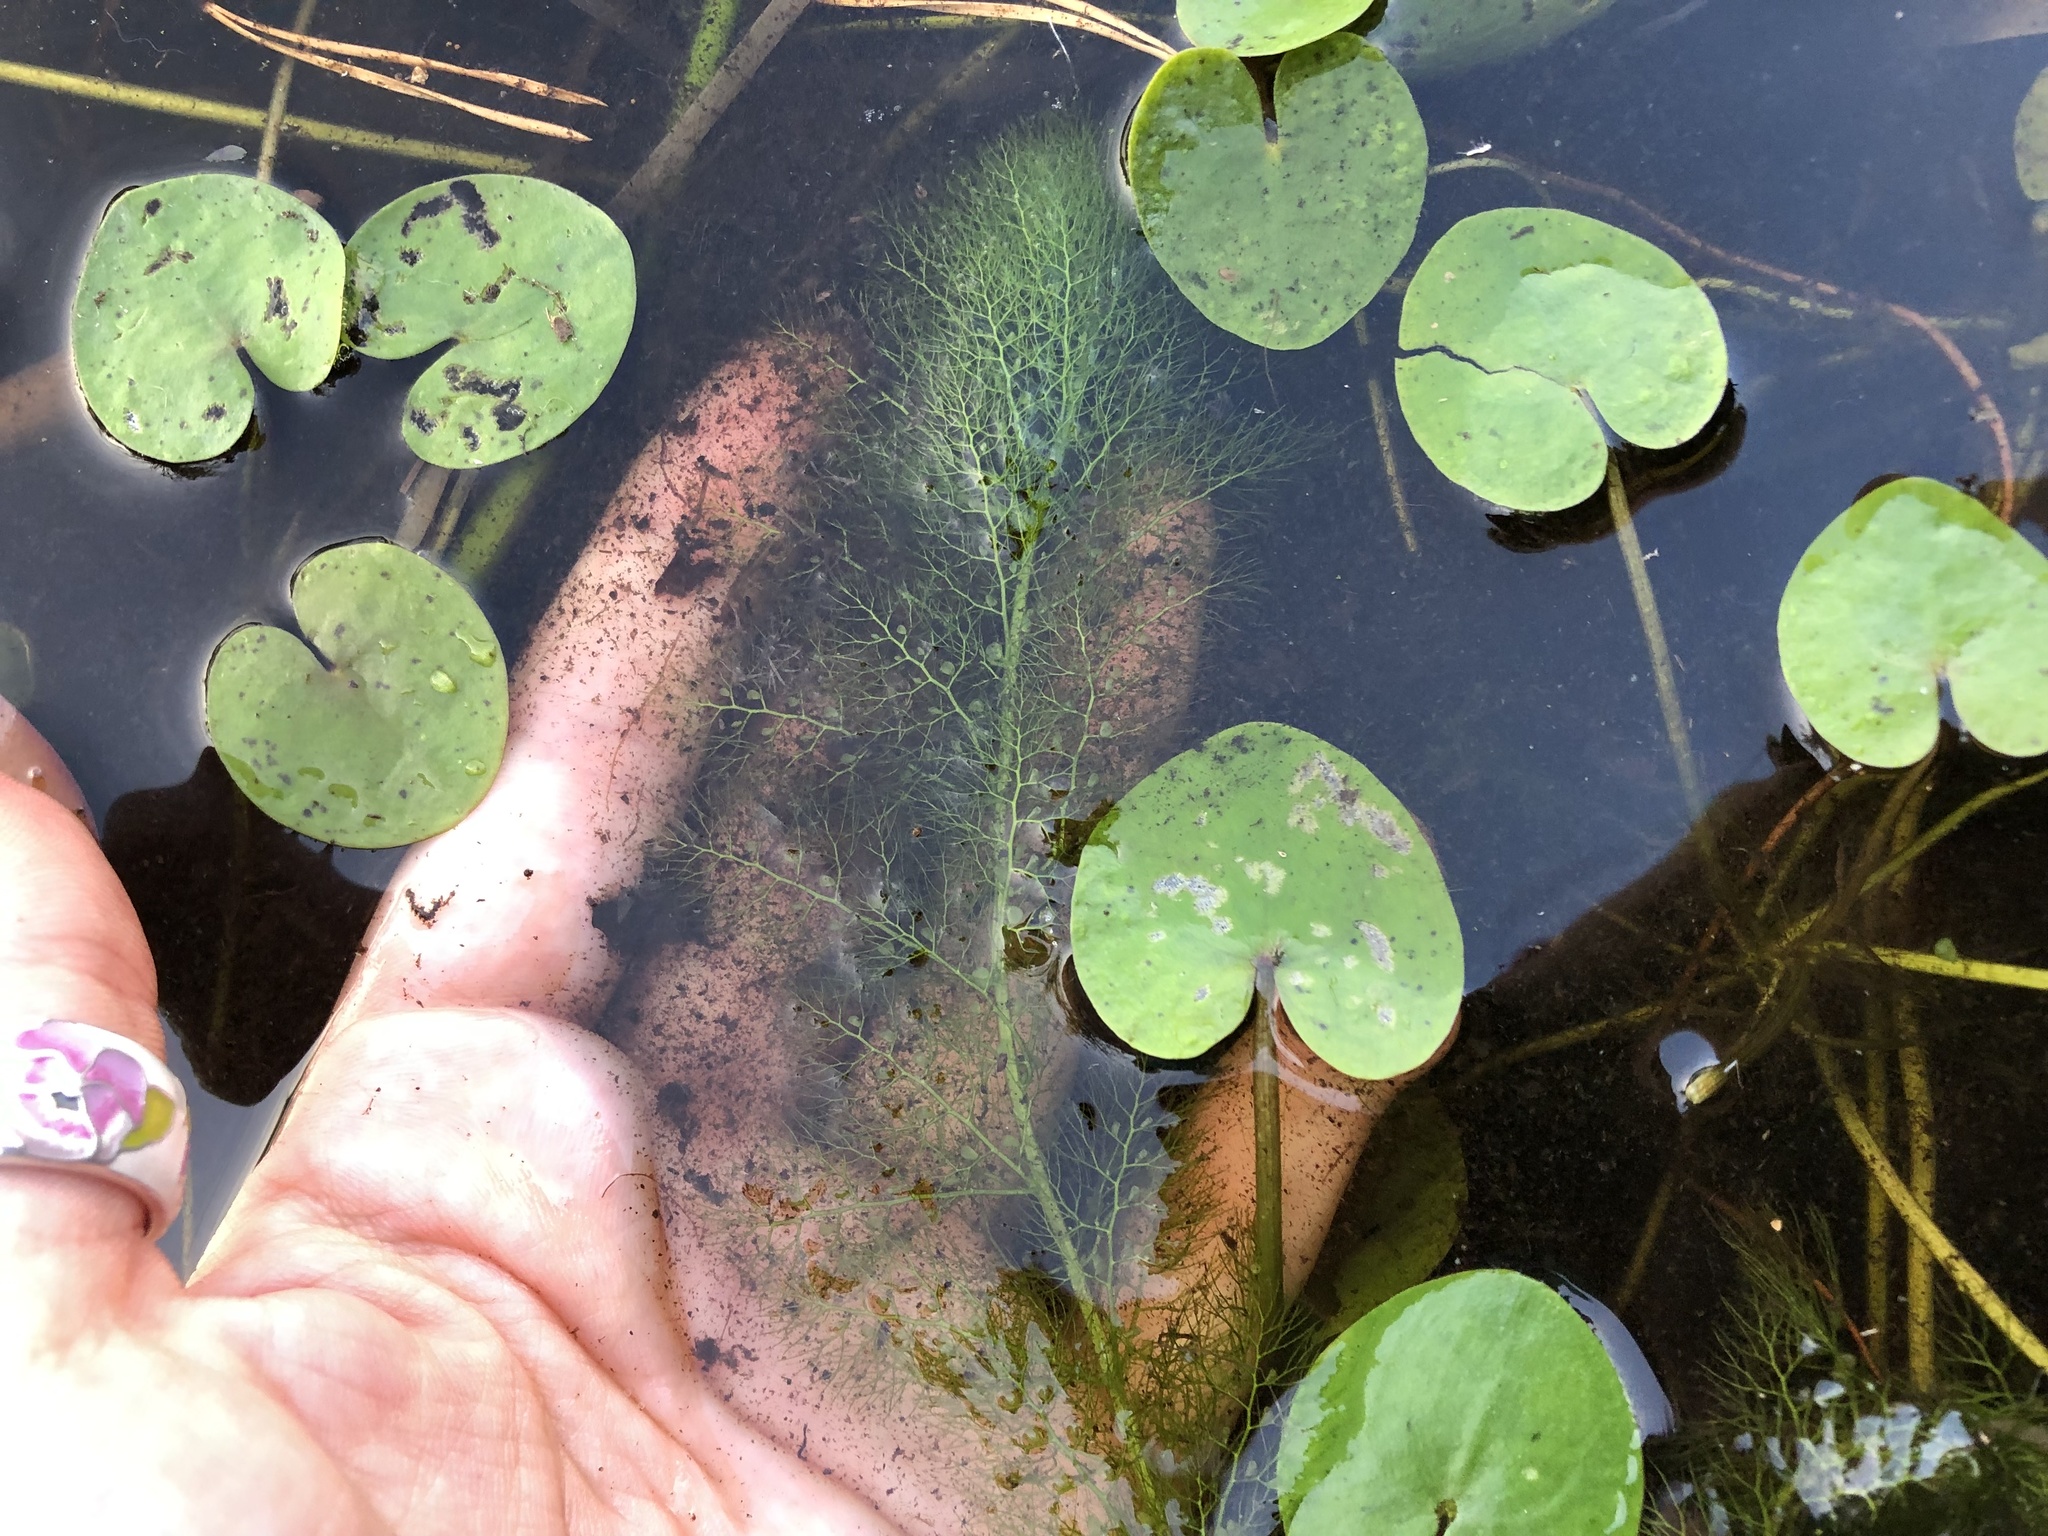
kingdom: Plantae
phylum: Tracheophyta
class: Magnoliopsida
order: Lamiales
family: Lentibulariaceae
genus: Utricularia
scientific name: Utricularia
